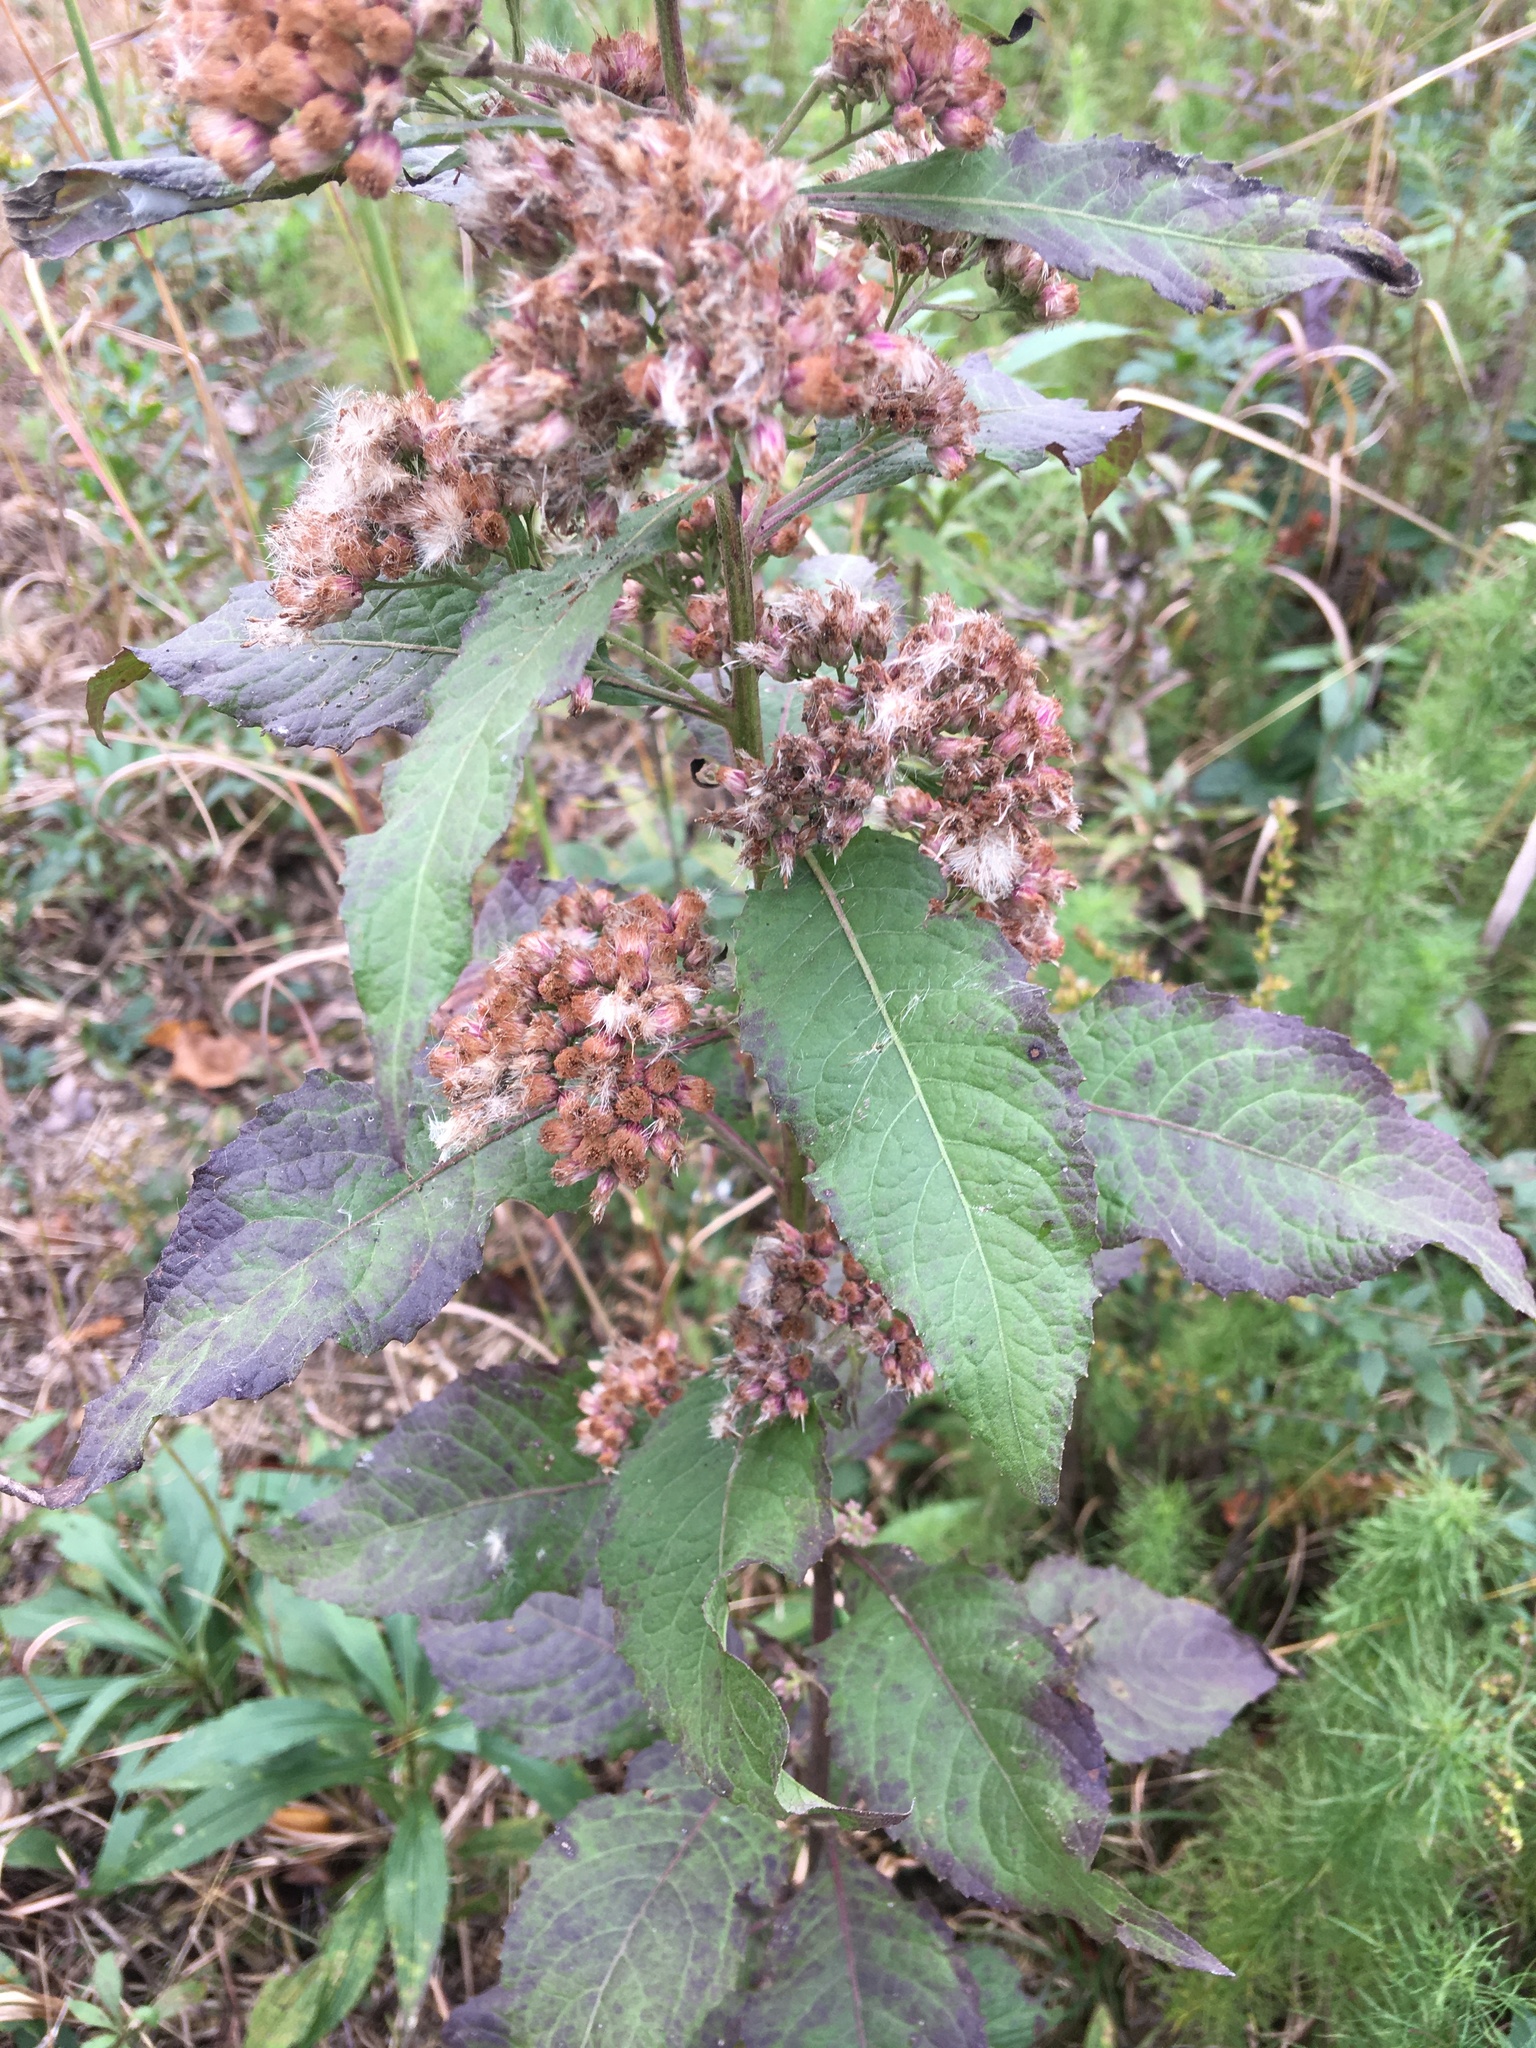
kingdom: Plantae
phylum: Tracheophyta
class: Magnoliopsida
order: Asterales
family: Asteraceae
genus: Pluchea
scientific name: Pluchea camphorata
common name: Camphor pluchea
